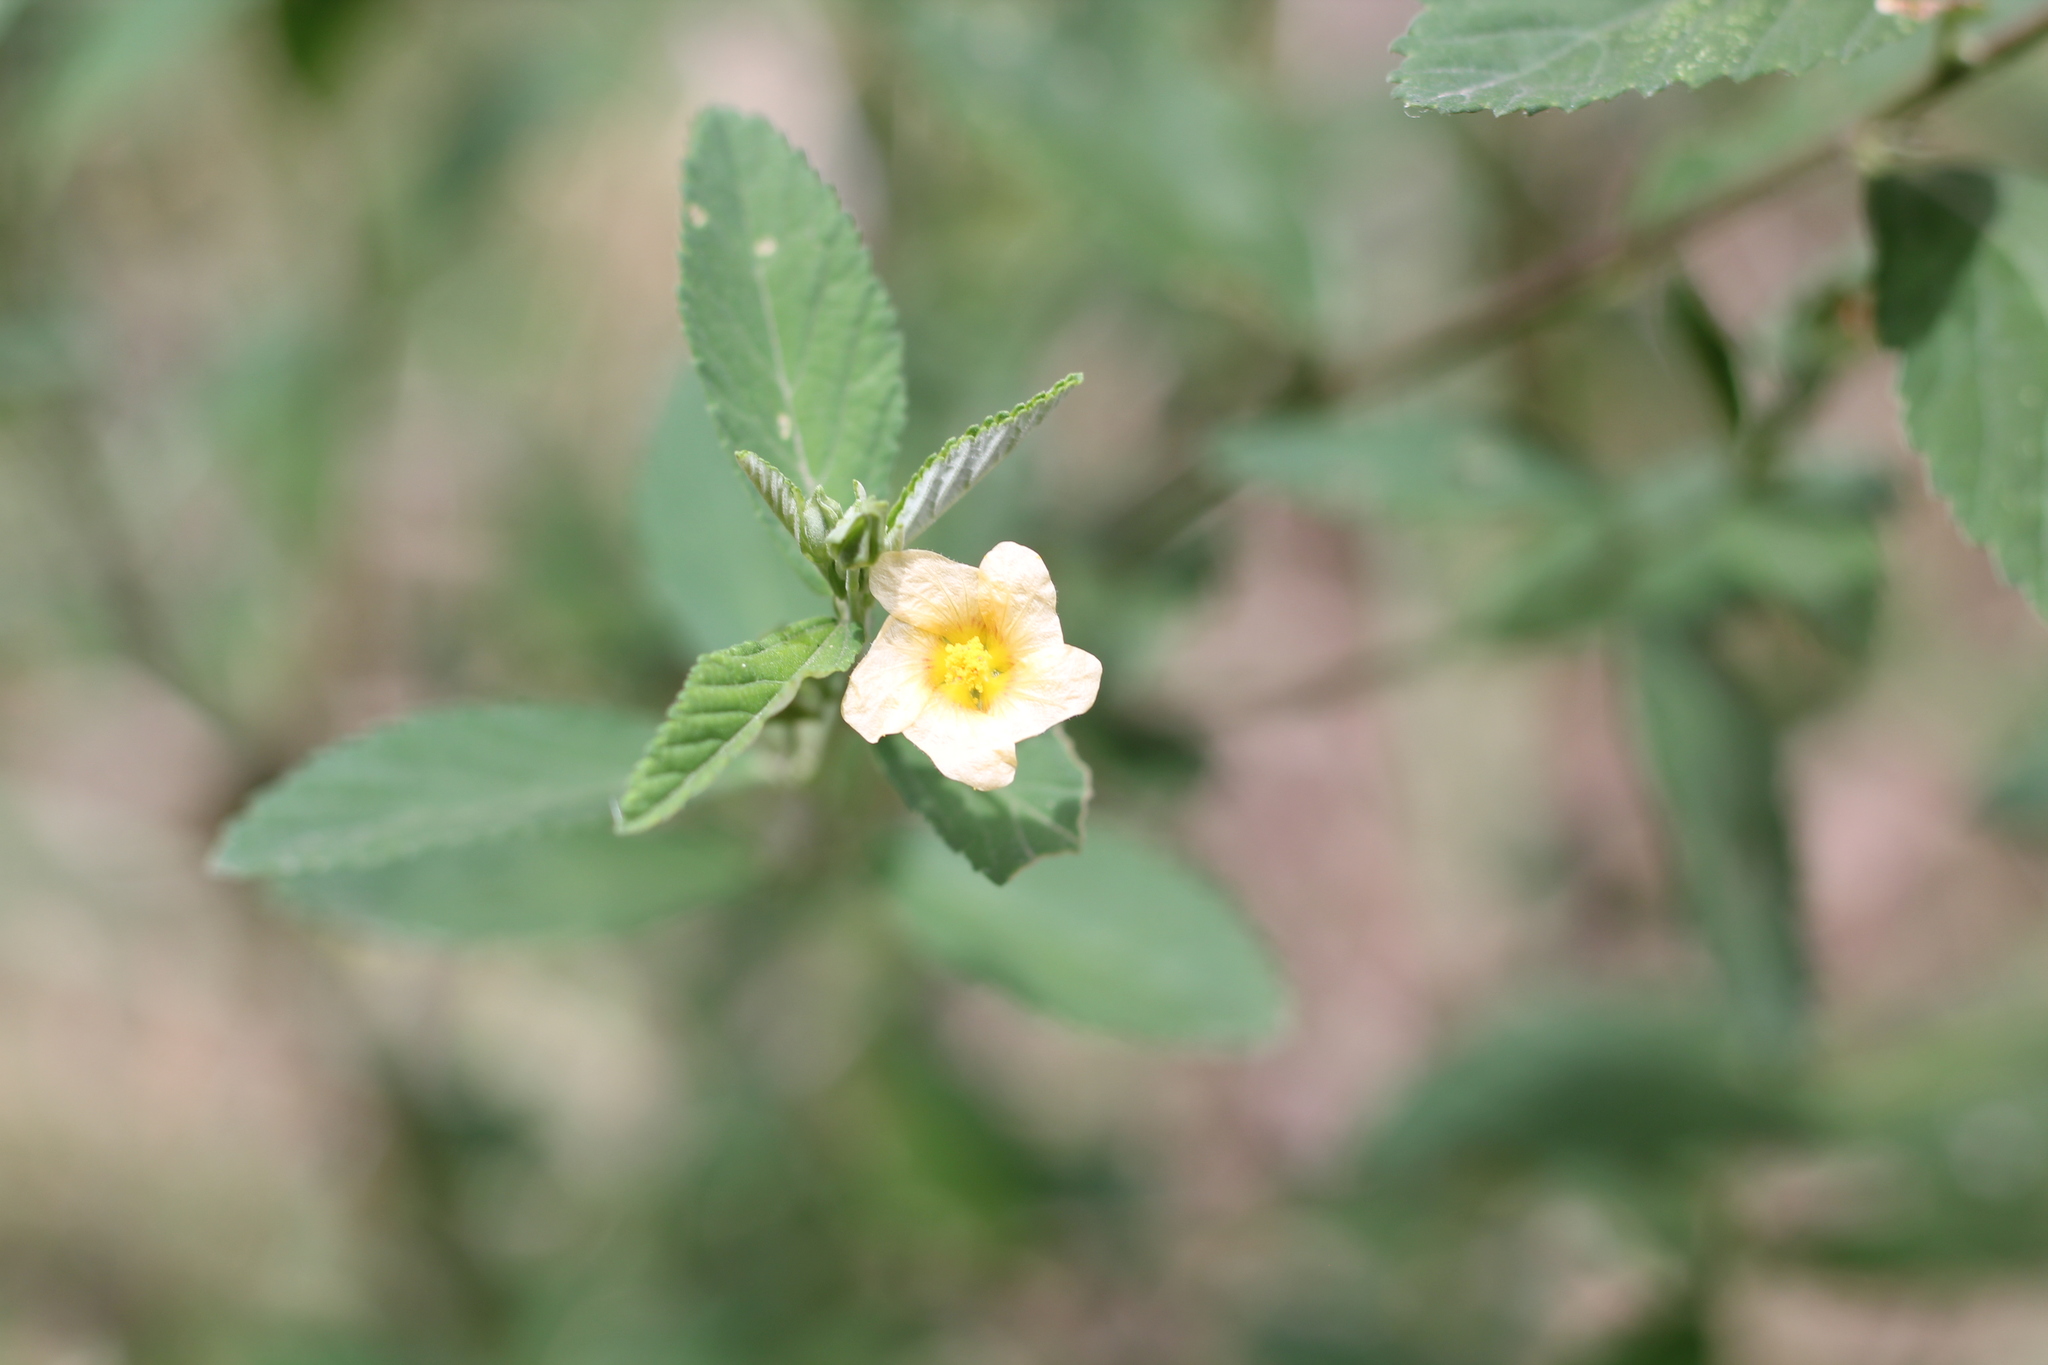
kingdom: Plantae
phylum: Tracheophyta
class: Magnoliopsida
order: Malvales
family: Malvaceae
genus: Sida
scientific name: Sida rhombifolia
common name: Queensland-hemp
